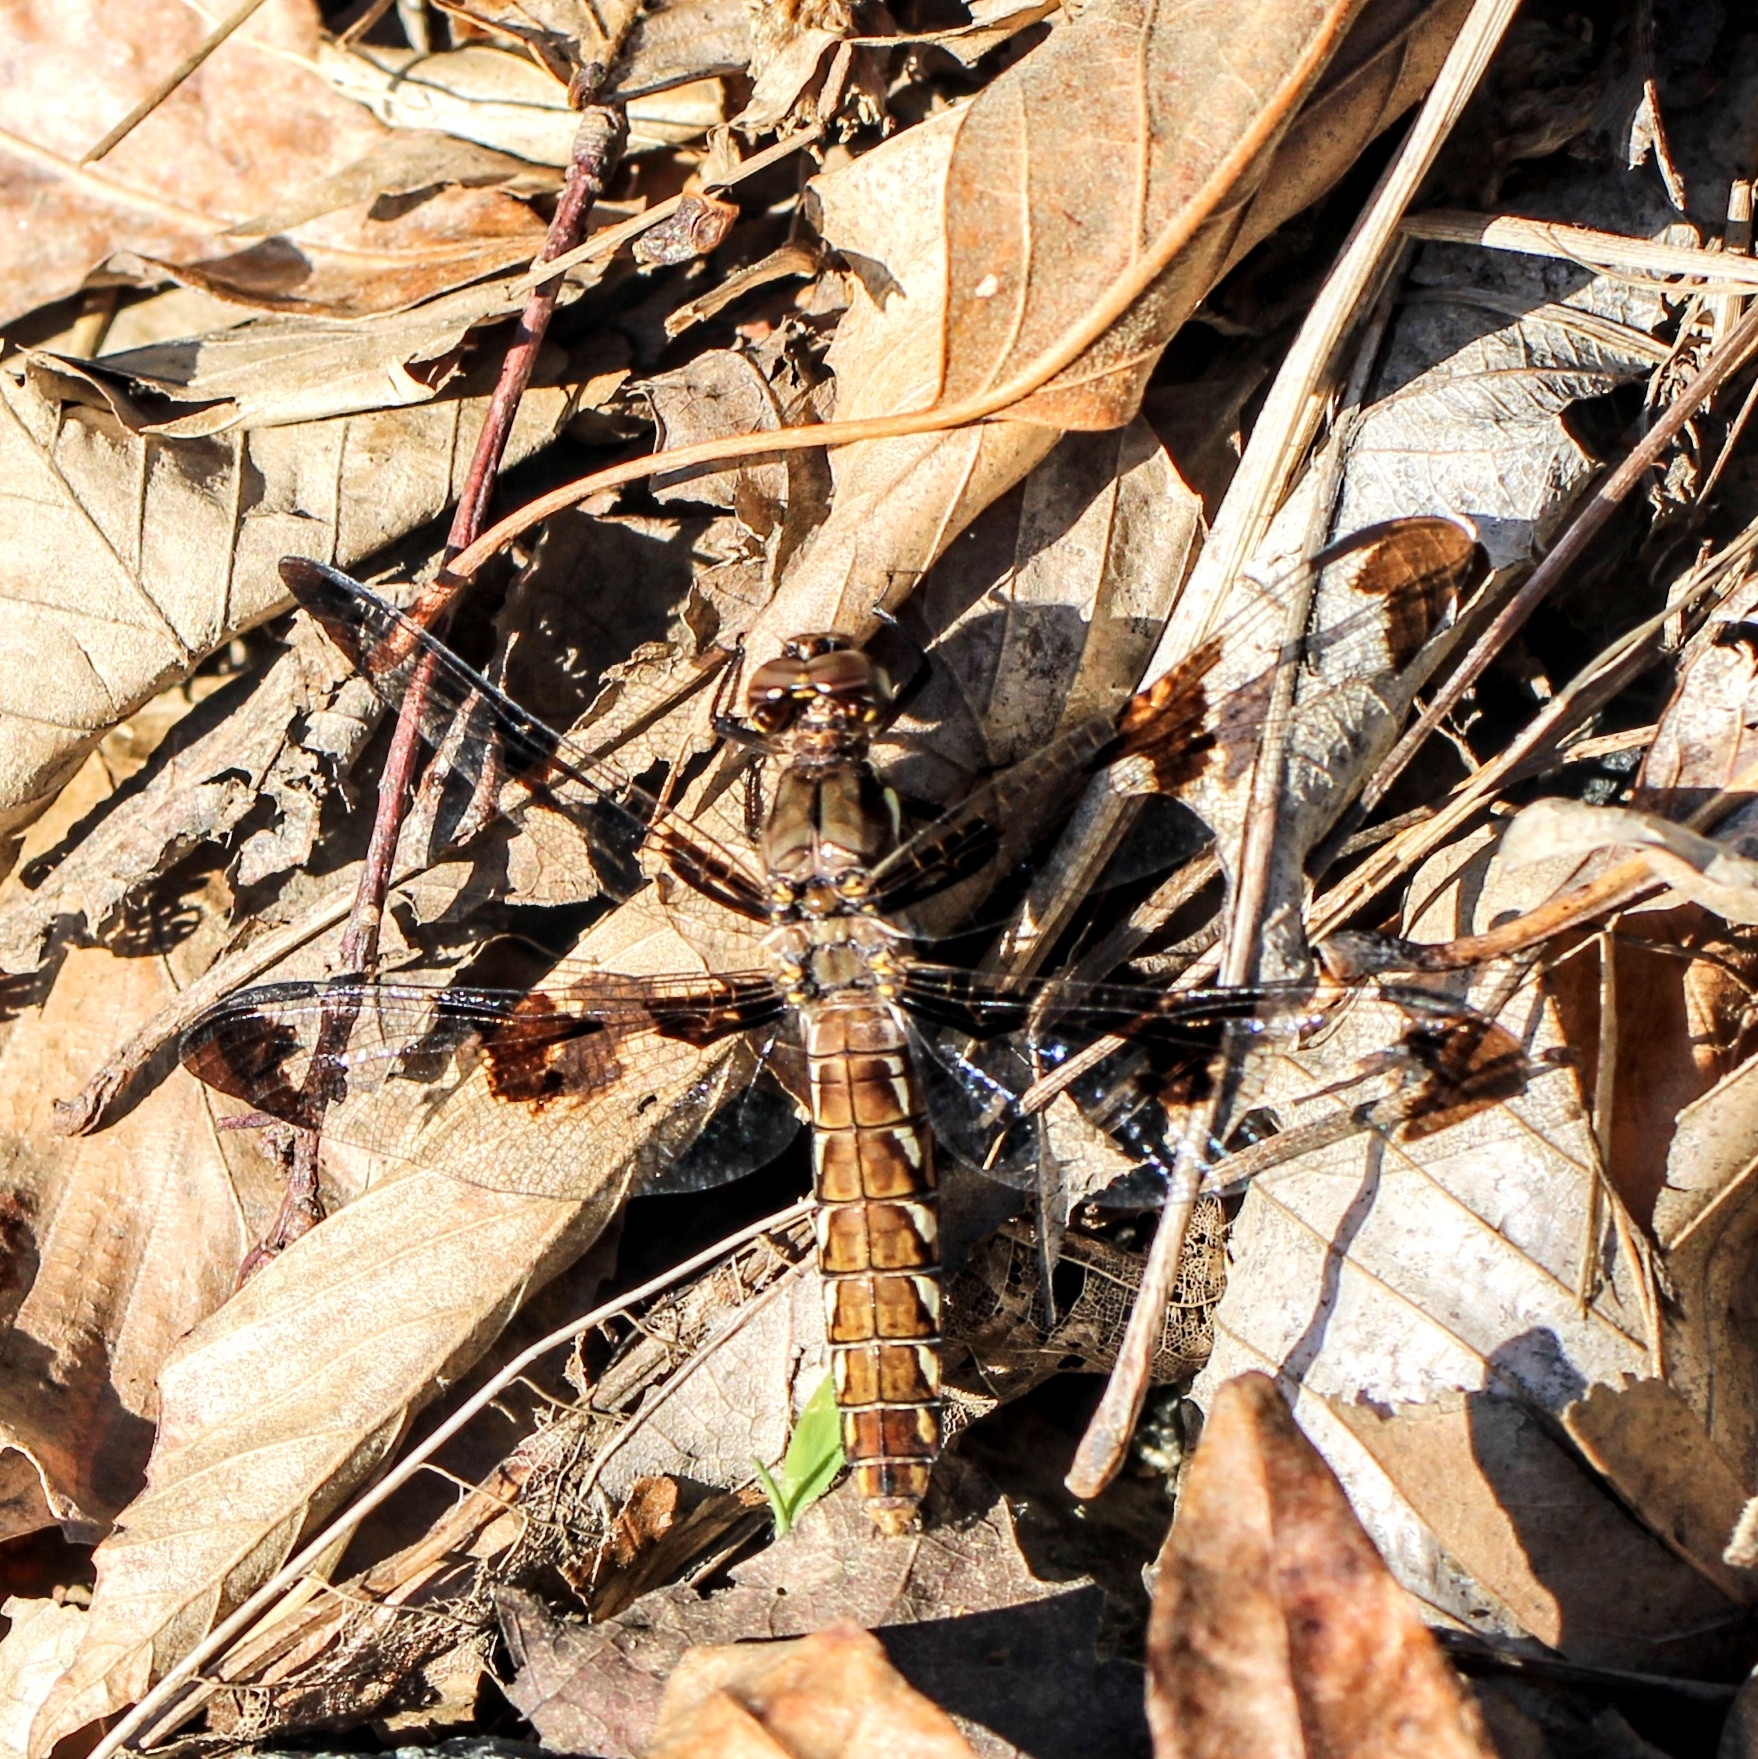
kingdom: Animalia
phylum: Arthropoda
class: Insecta
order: Odonata
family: Libellulidae
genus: Plathemis
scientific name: Plathemis lydia
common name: Common whitetail
